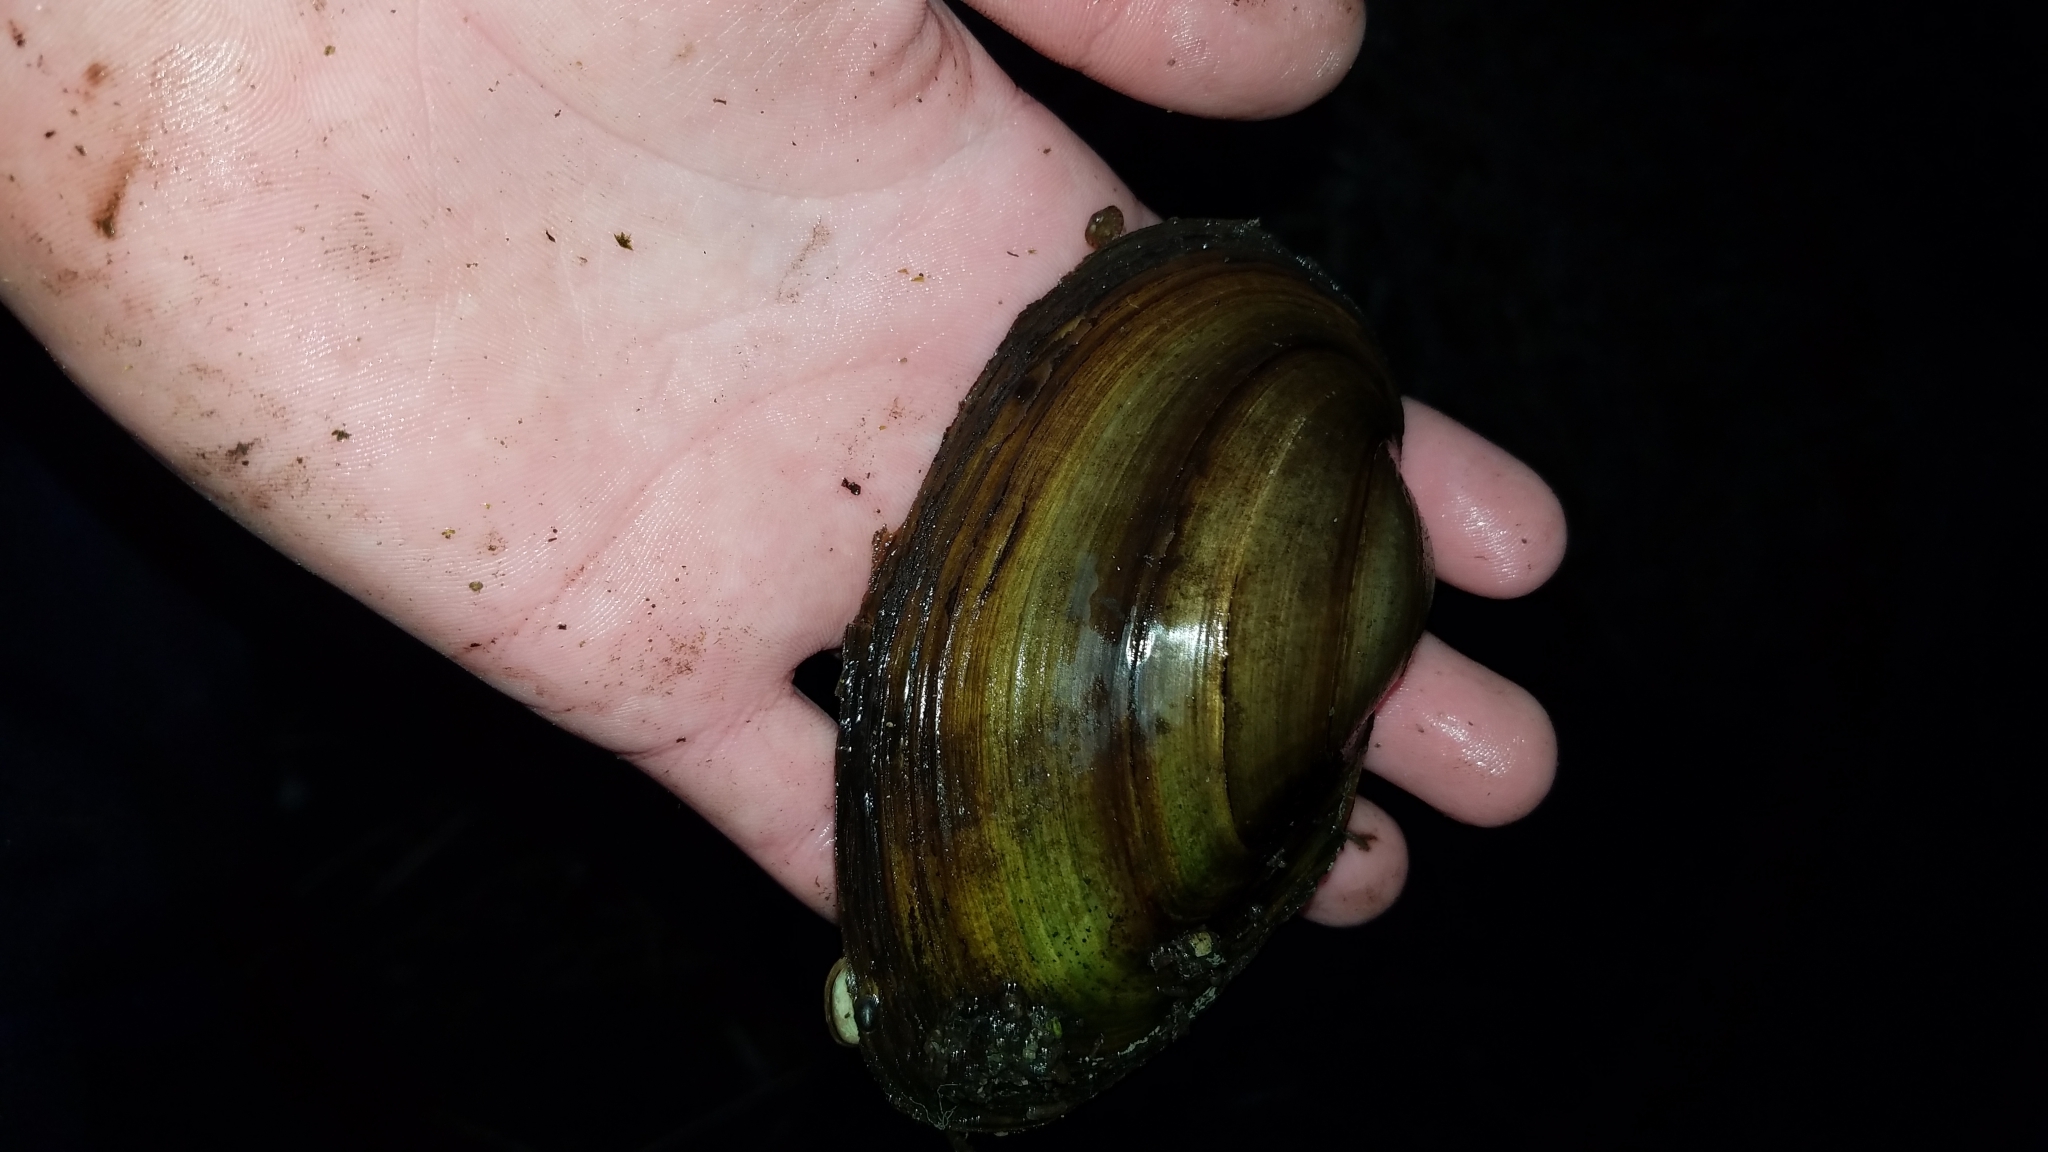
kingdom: Animalia
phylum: Mollusca
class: Bivalvia
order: Unionida
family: Unionidae
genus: Pyganodon
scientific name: Pyganodon grandis
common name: Giant floater
